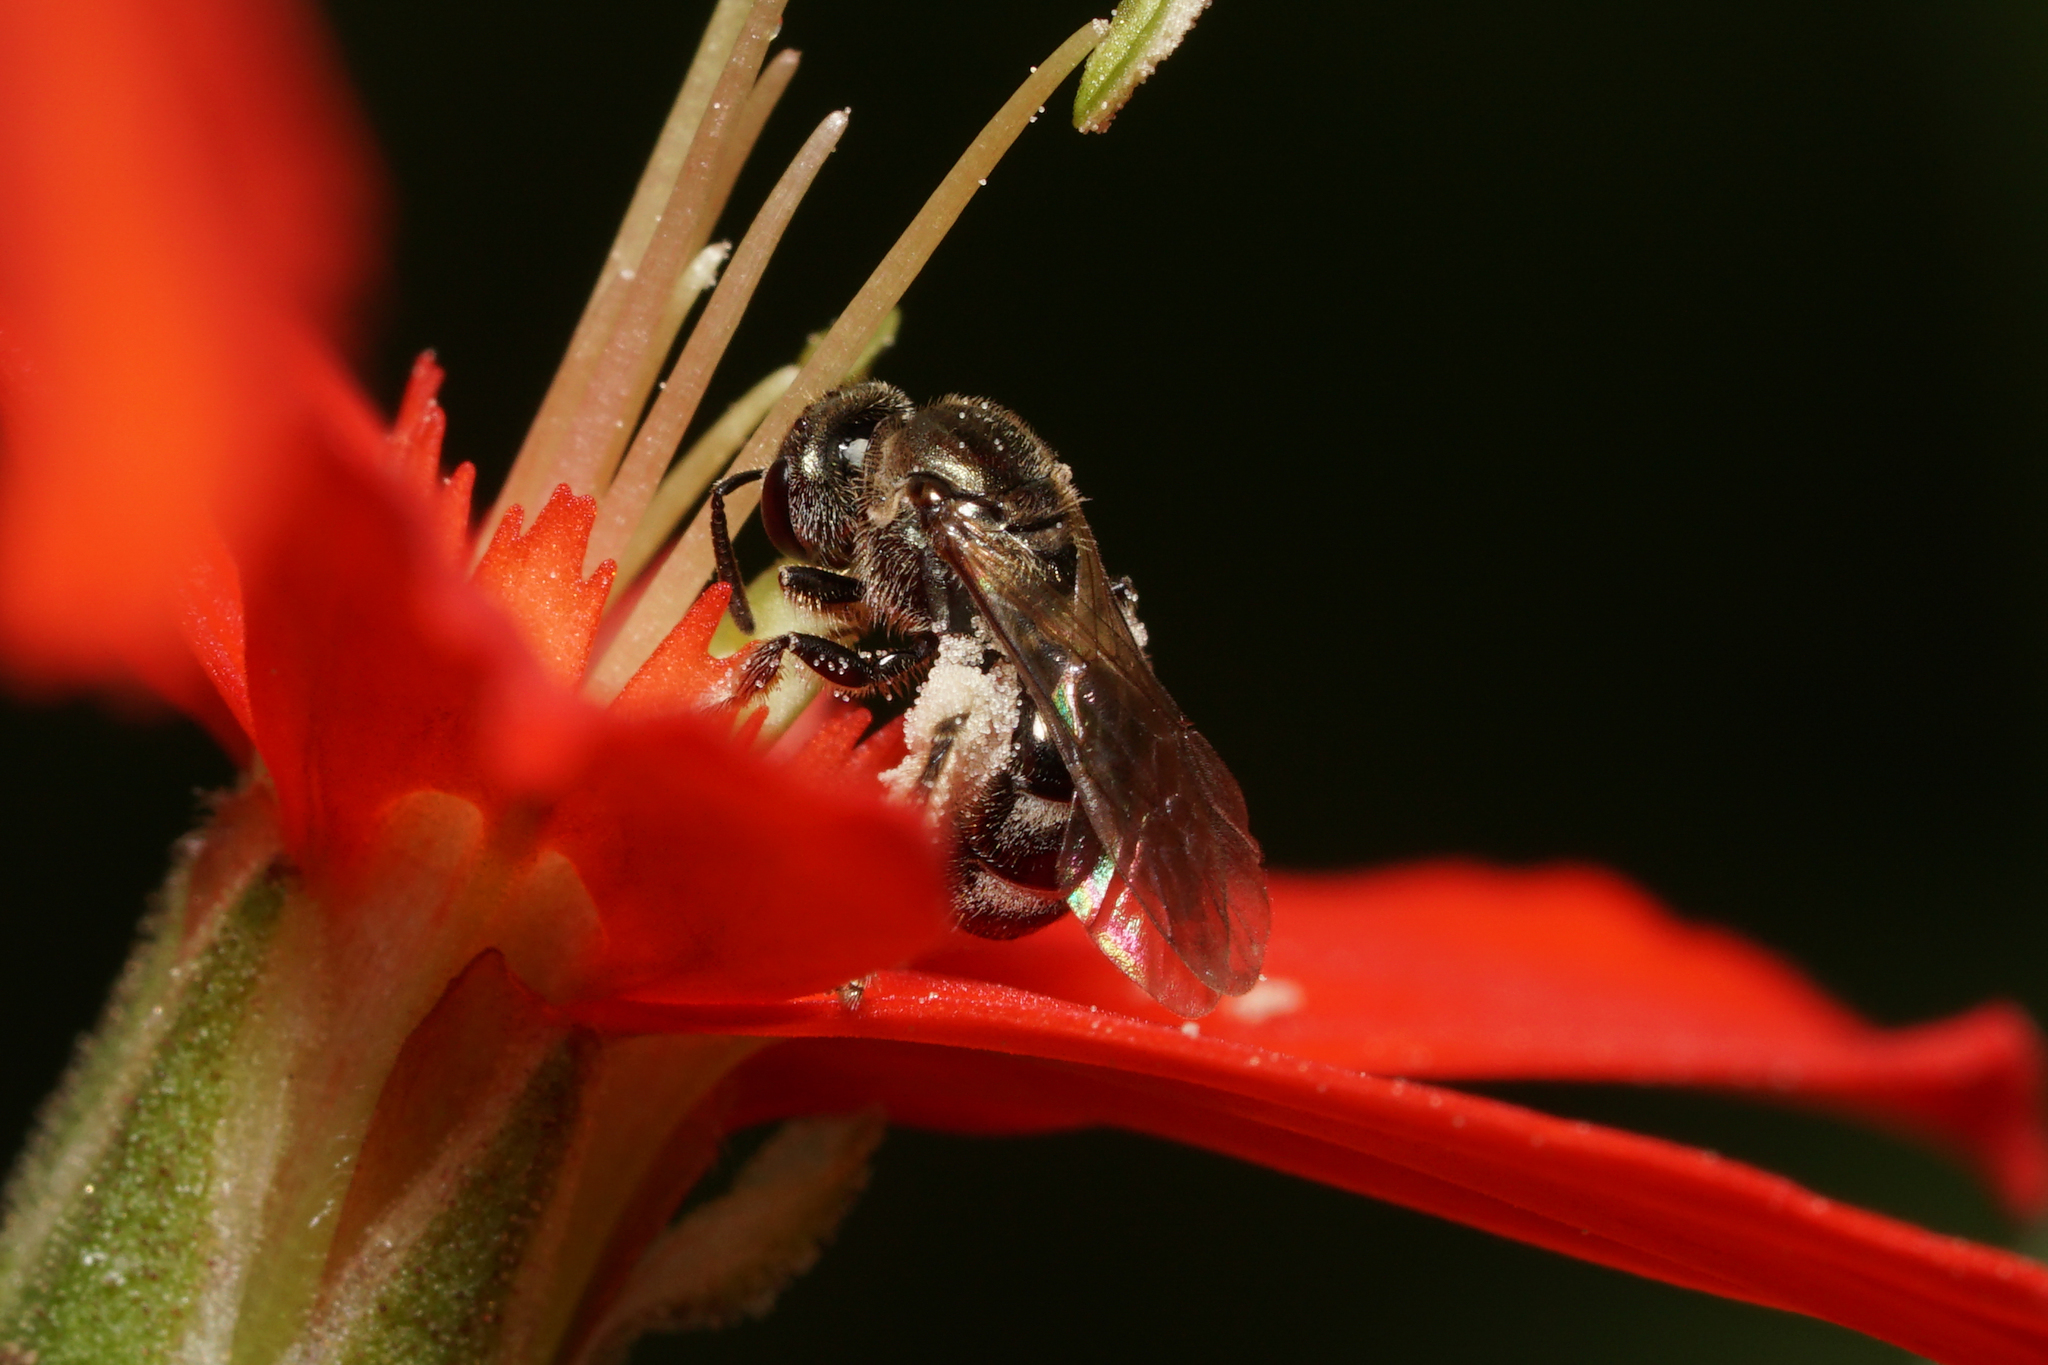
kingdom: Animalia
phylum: Arthropoda
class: Insecta
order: Hymenoptera
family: Halictidae
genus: Dialictus
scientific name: Dialictus
